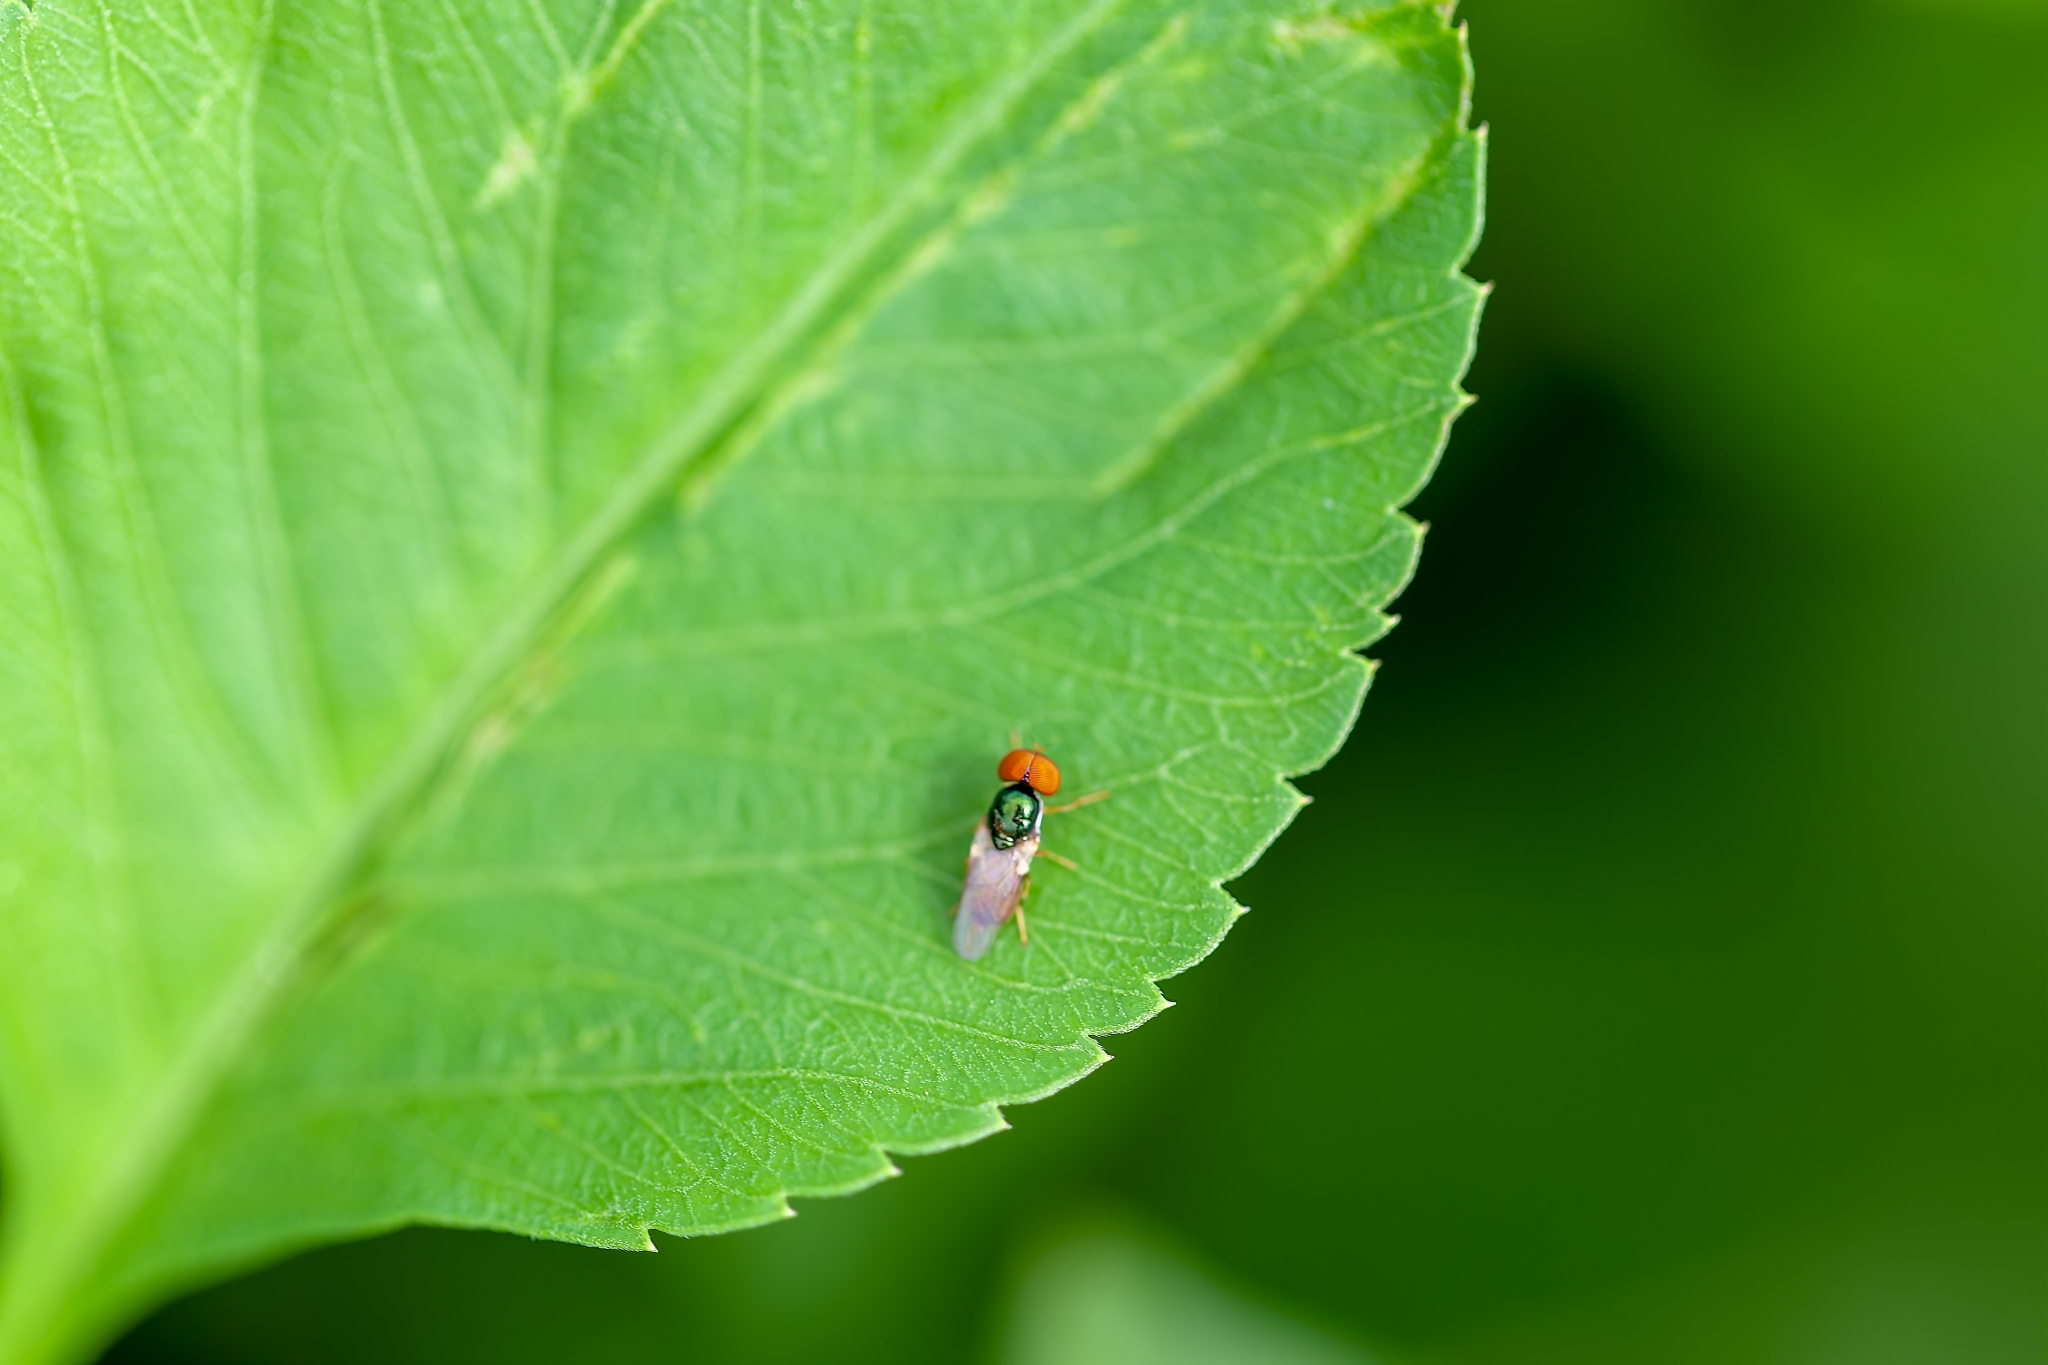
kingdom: Animalia
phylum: Arthropoda
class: Insecta
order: Diptera
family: Stratiomyidae
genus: Microchrysa
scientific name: Microchrysa flaviventris
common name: Soldier fly
